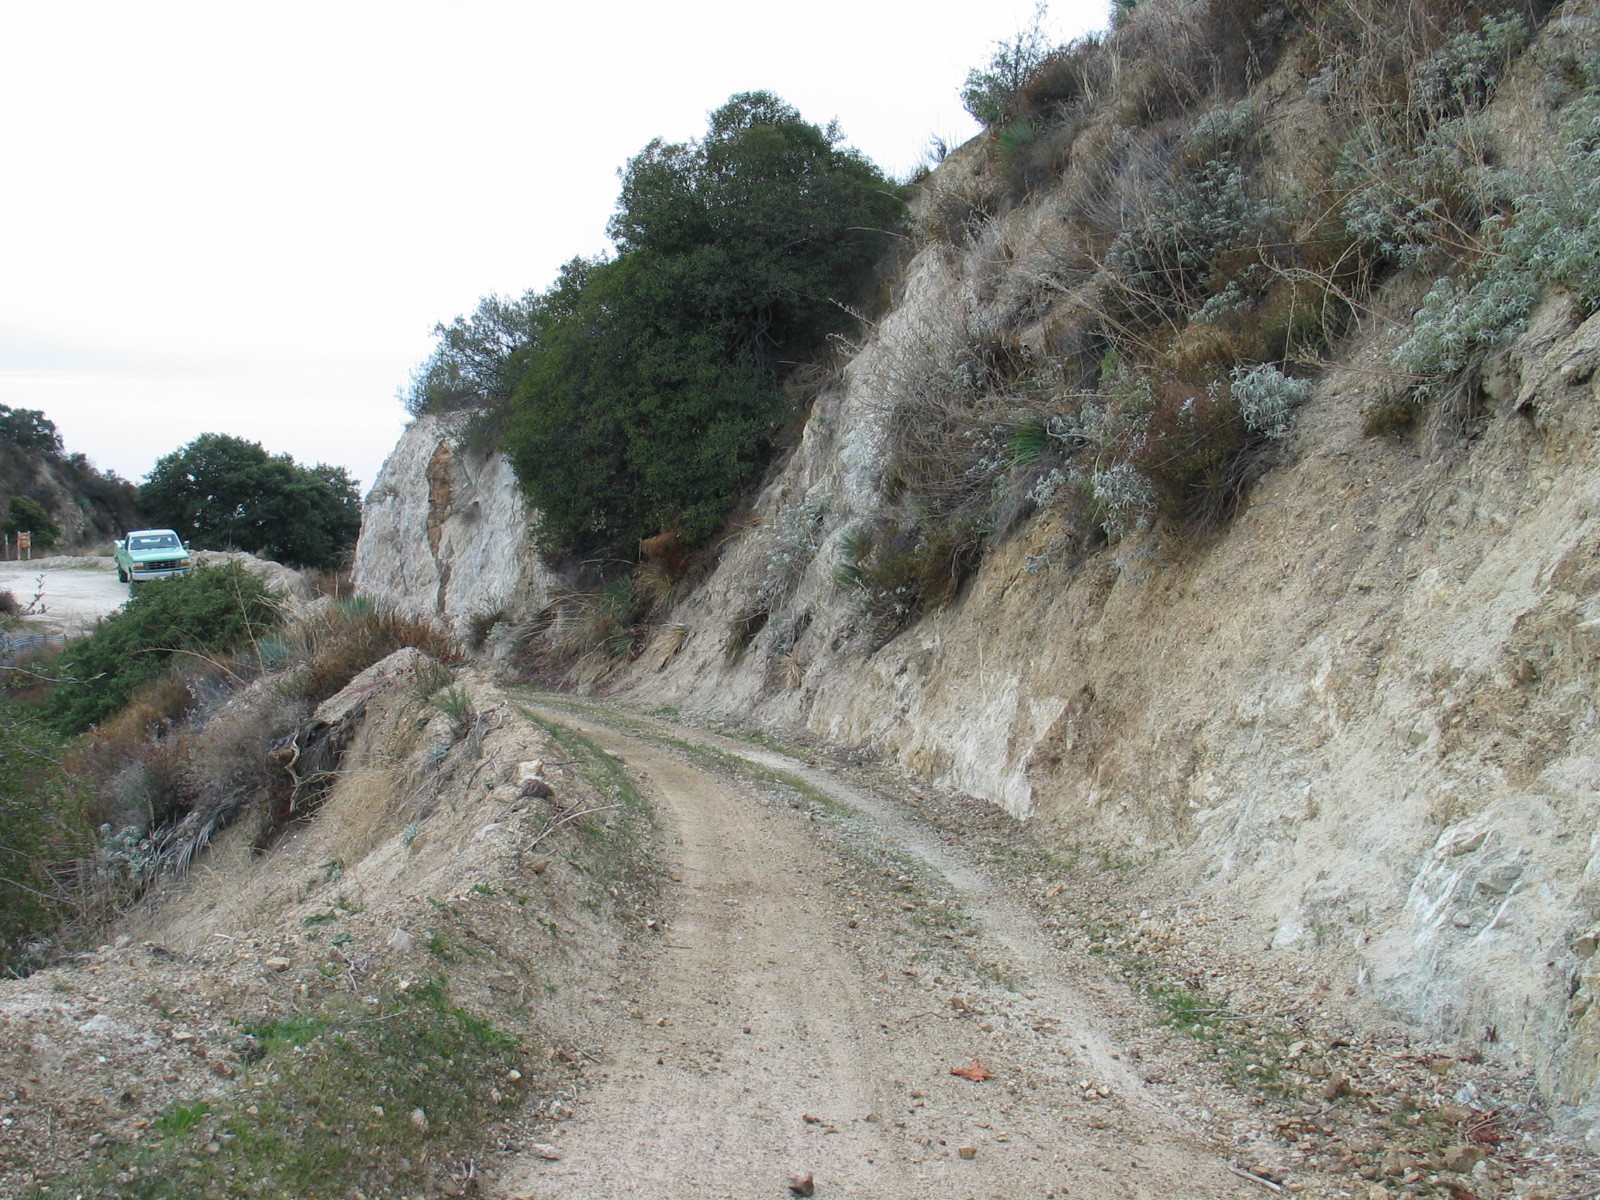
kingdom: Plantae
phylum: Tracheophyta
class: Liliopsida
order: Asparagales
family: Asparagaceae
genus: Hesperoyucca
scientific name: Hesperoyucca whipplei
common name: Our lord's-candle
